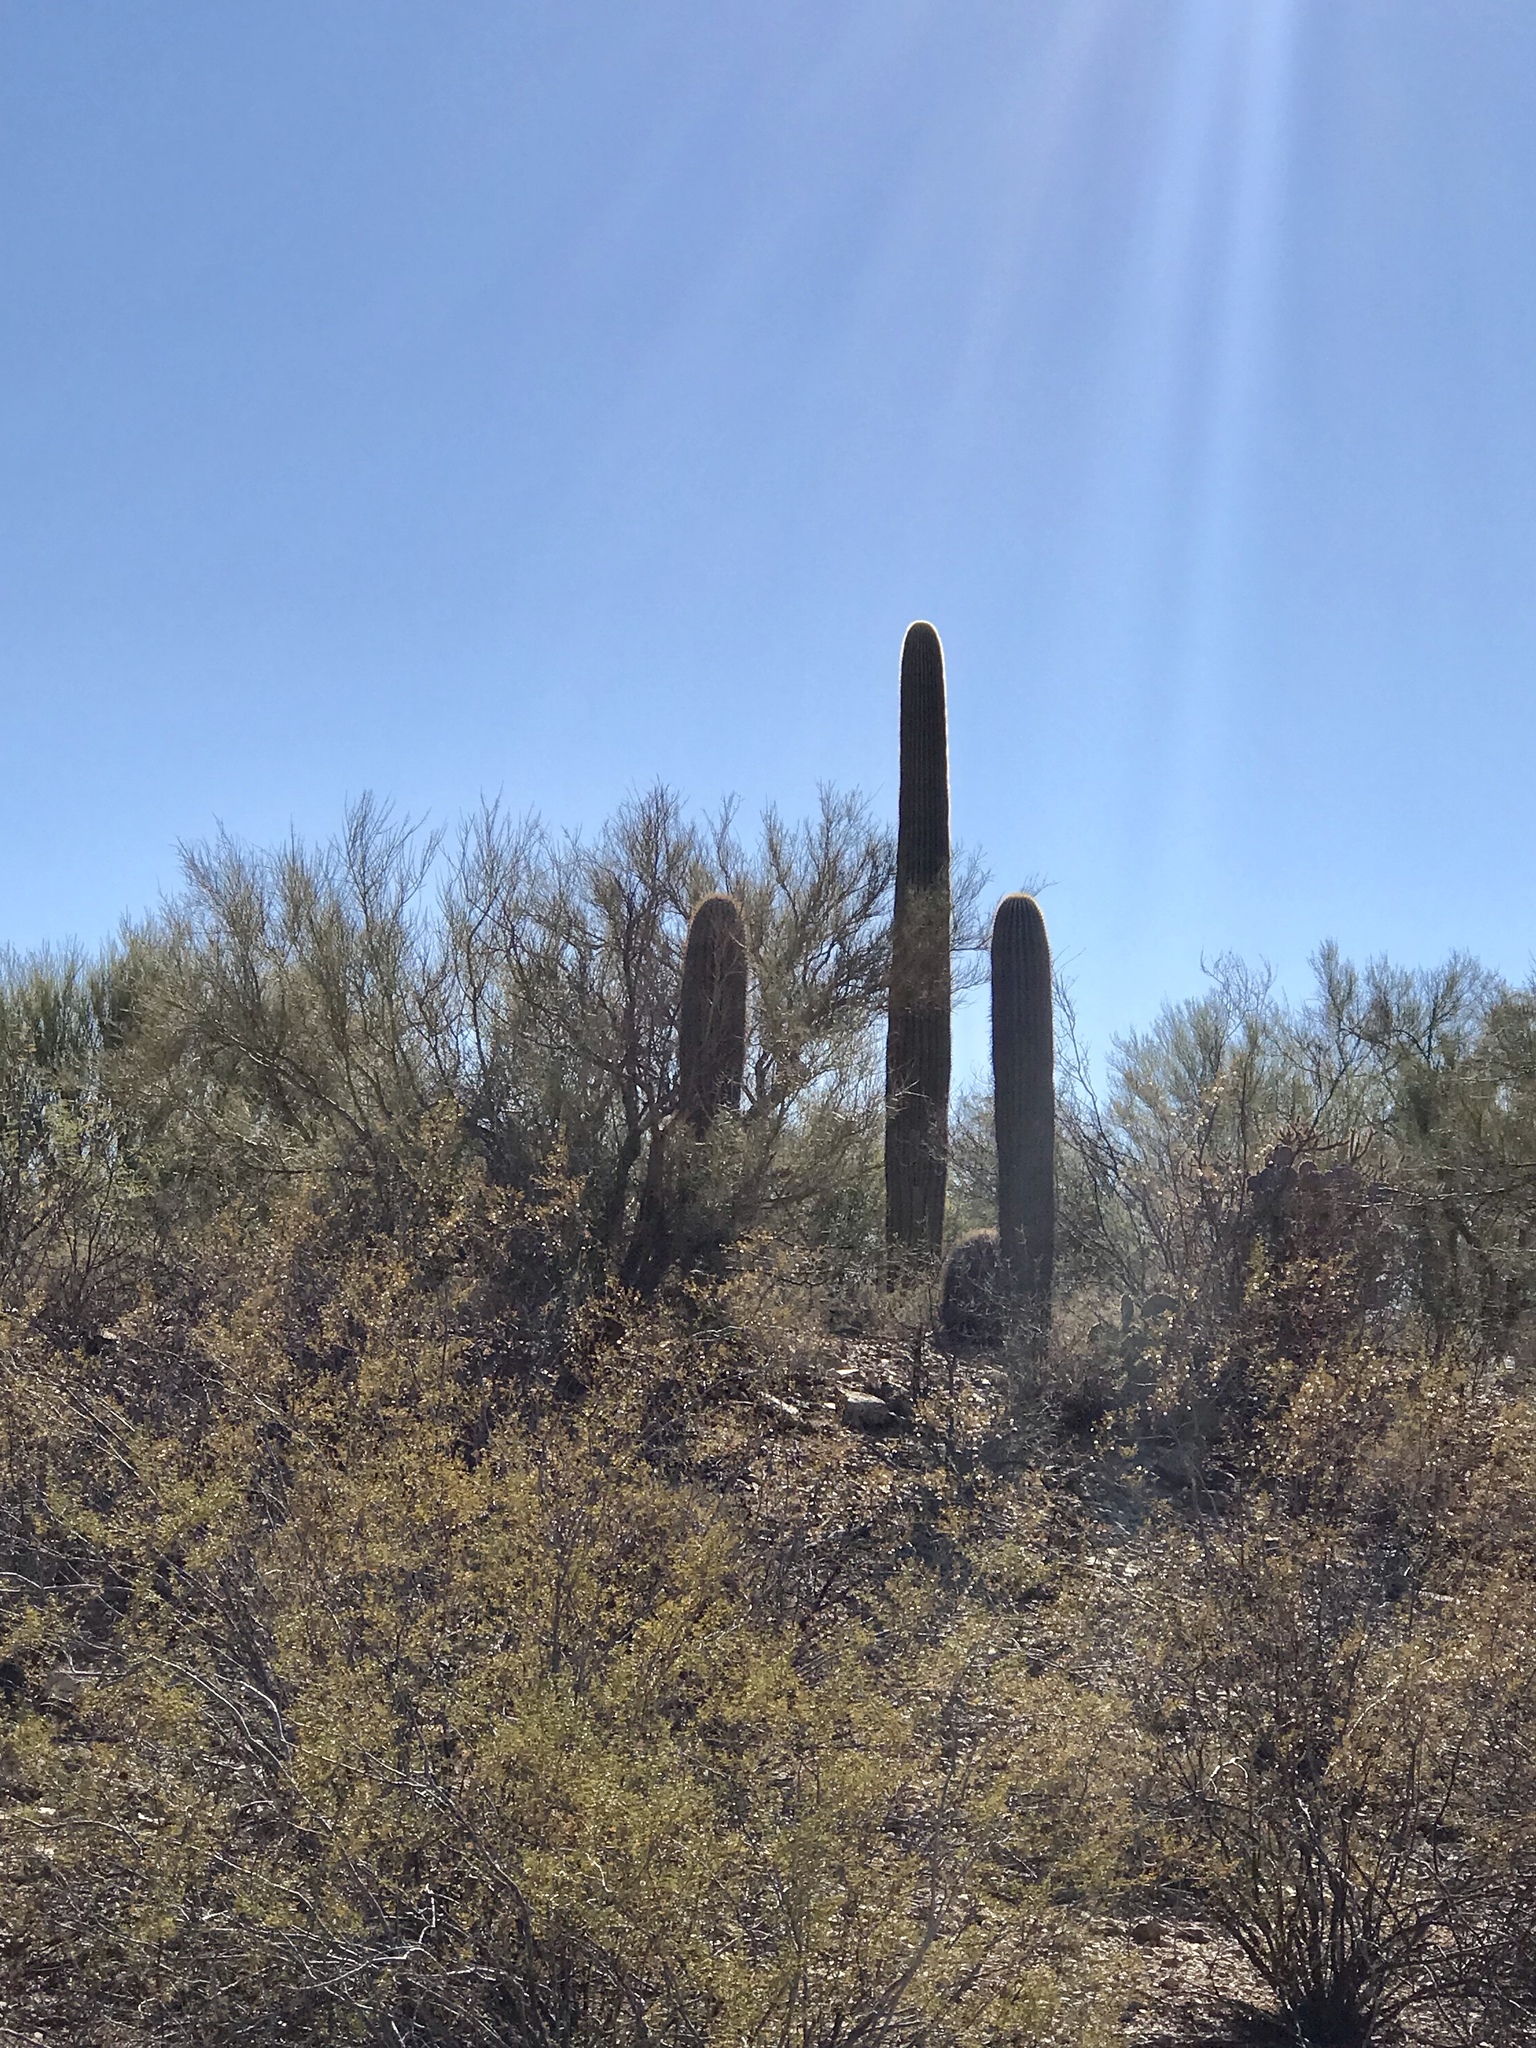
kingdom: Plantae
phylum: Tracheophyta
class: Magnoliopsida
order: Caryophyllales
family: Cactaceae
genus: Carnegiea
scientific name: Carnegiea gigantea
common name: Saguaro
